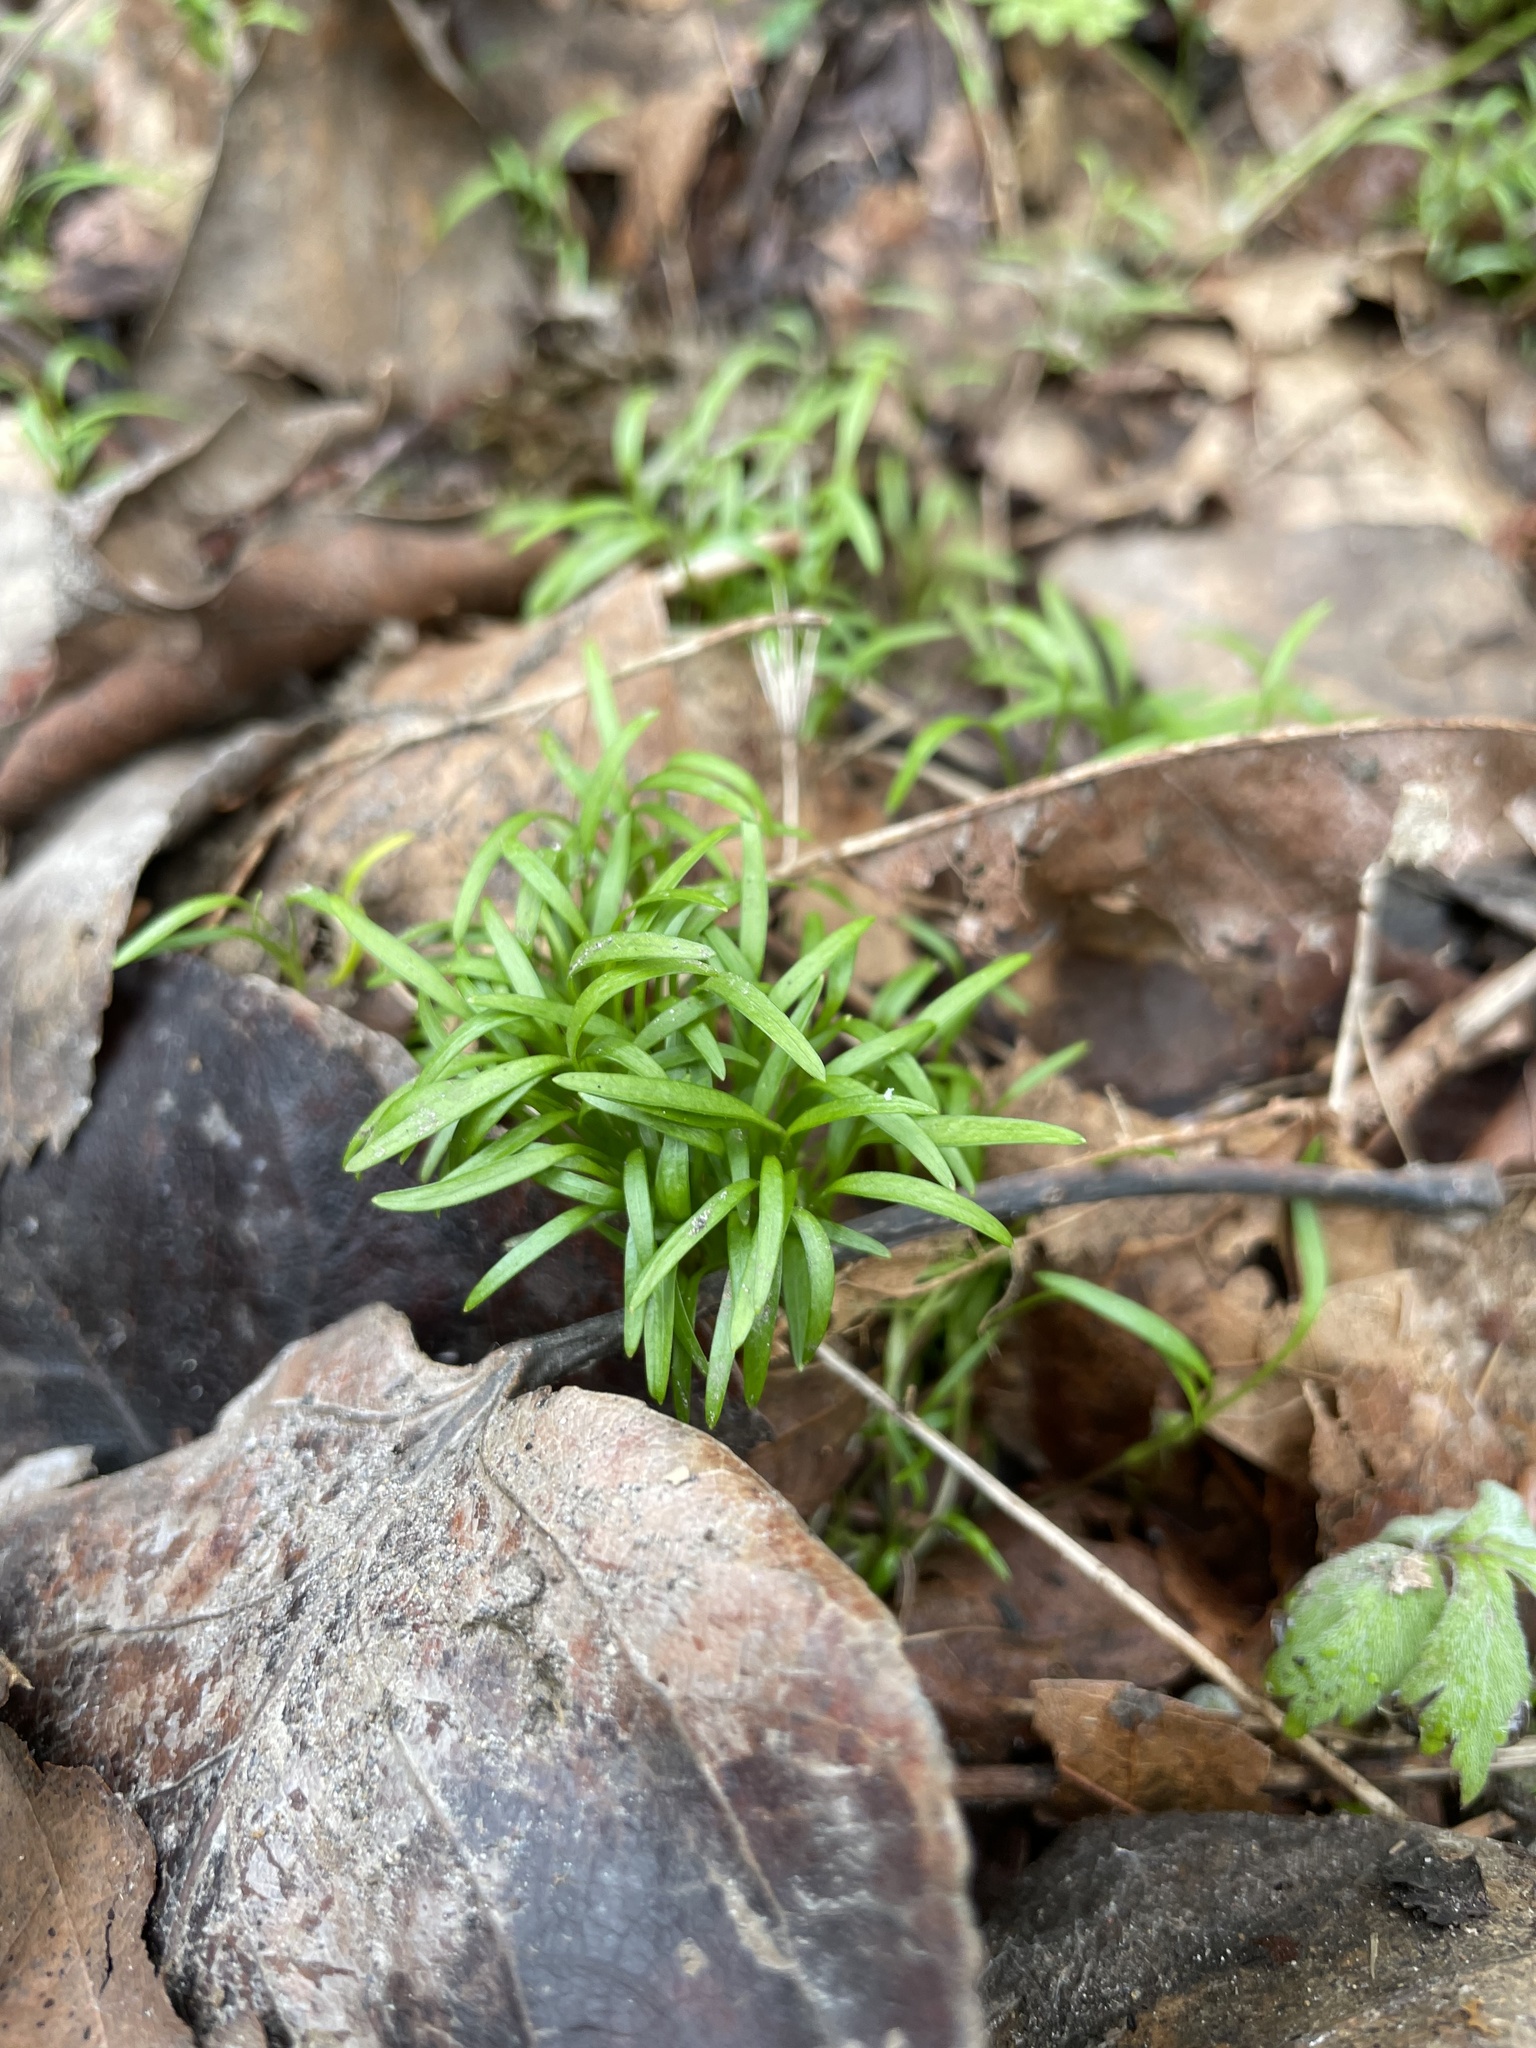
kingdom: Plantae
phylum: Tracheophyta
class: Magnoliopsida
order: Apiales
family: Apiaceae
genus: Chaerophyllum
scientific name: Chaerophyllum temulum
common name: Rough chervil
